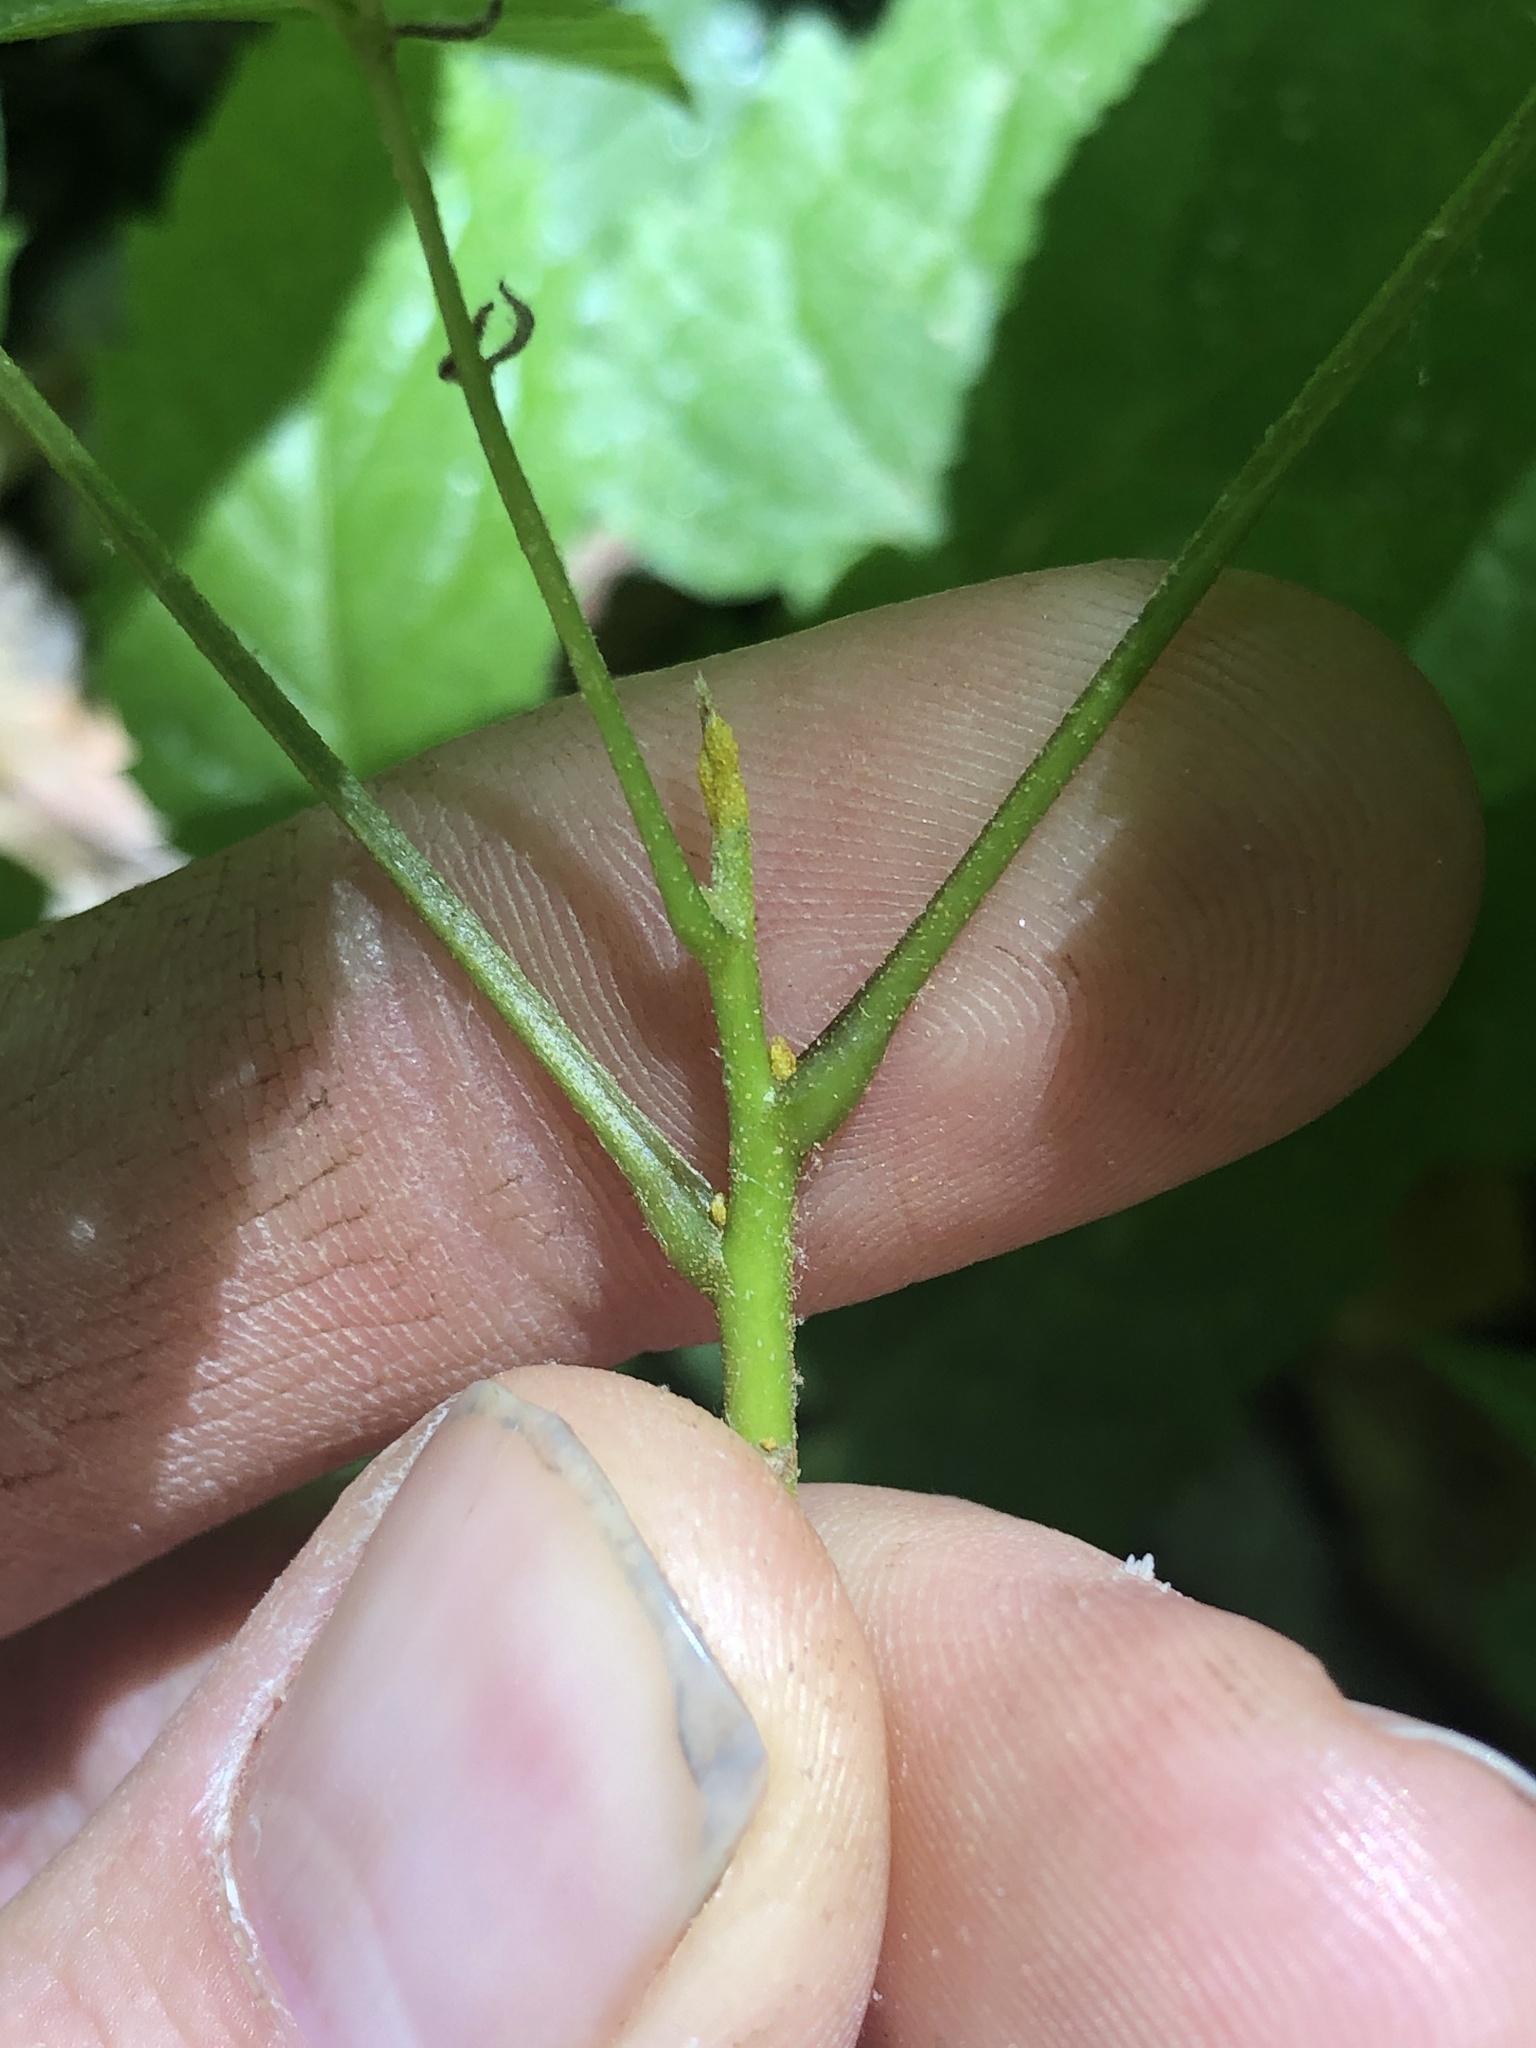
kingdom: Plantae
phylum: Tracheophyta
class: Magnoliopsida
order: Fagales
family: Juglandaceae
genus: Carya
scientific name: Carya cordiformis
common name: Bitternut hickory
